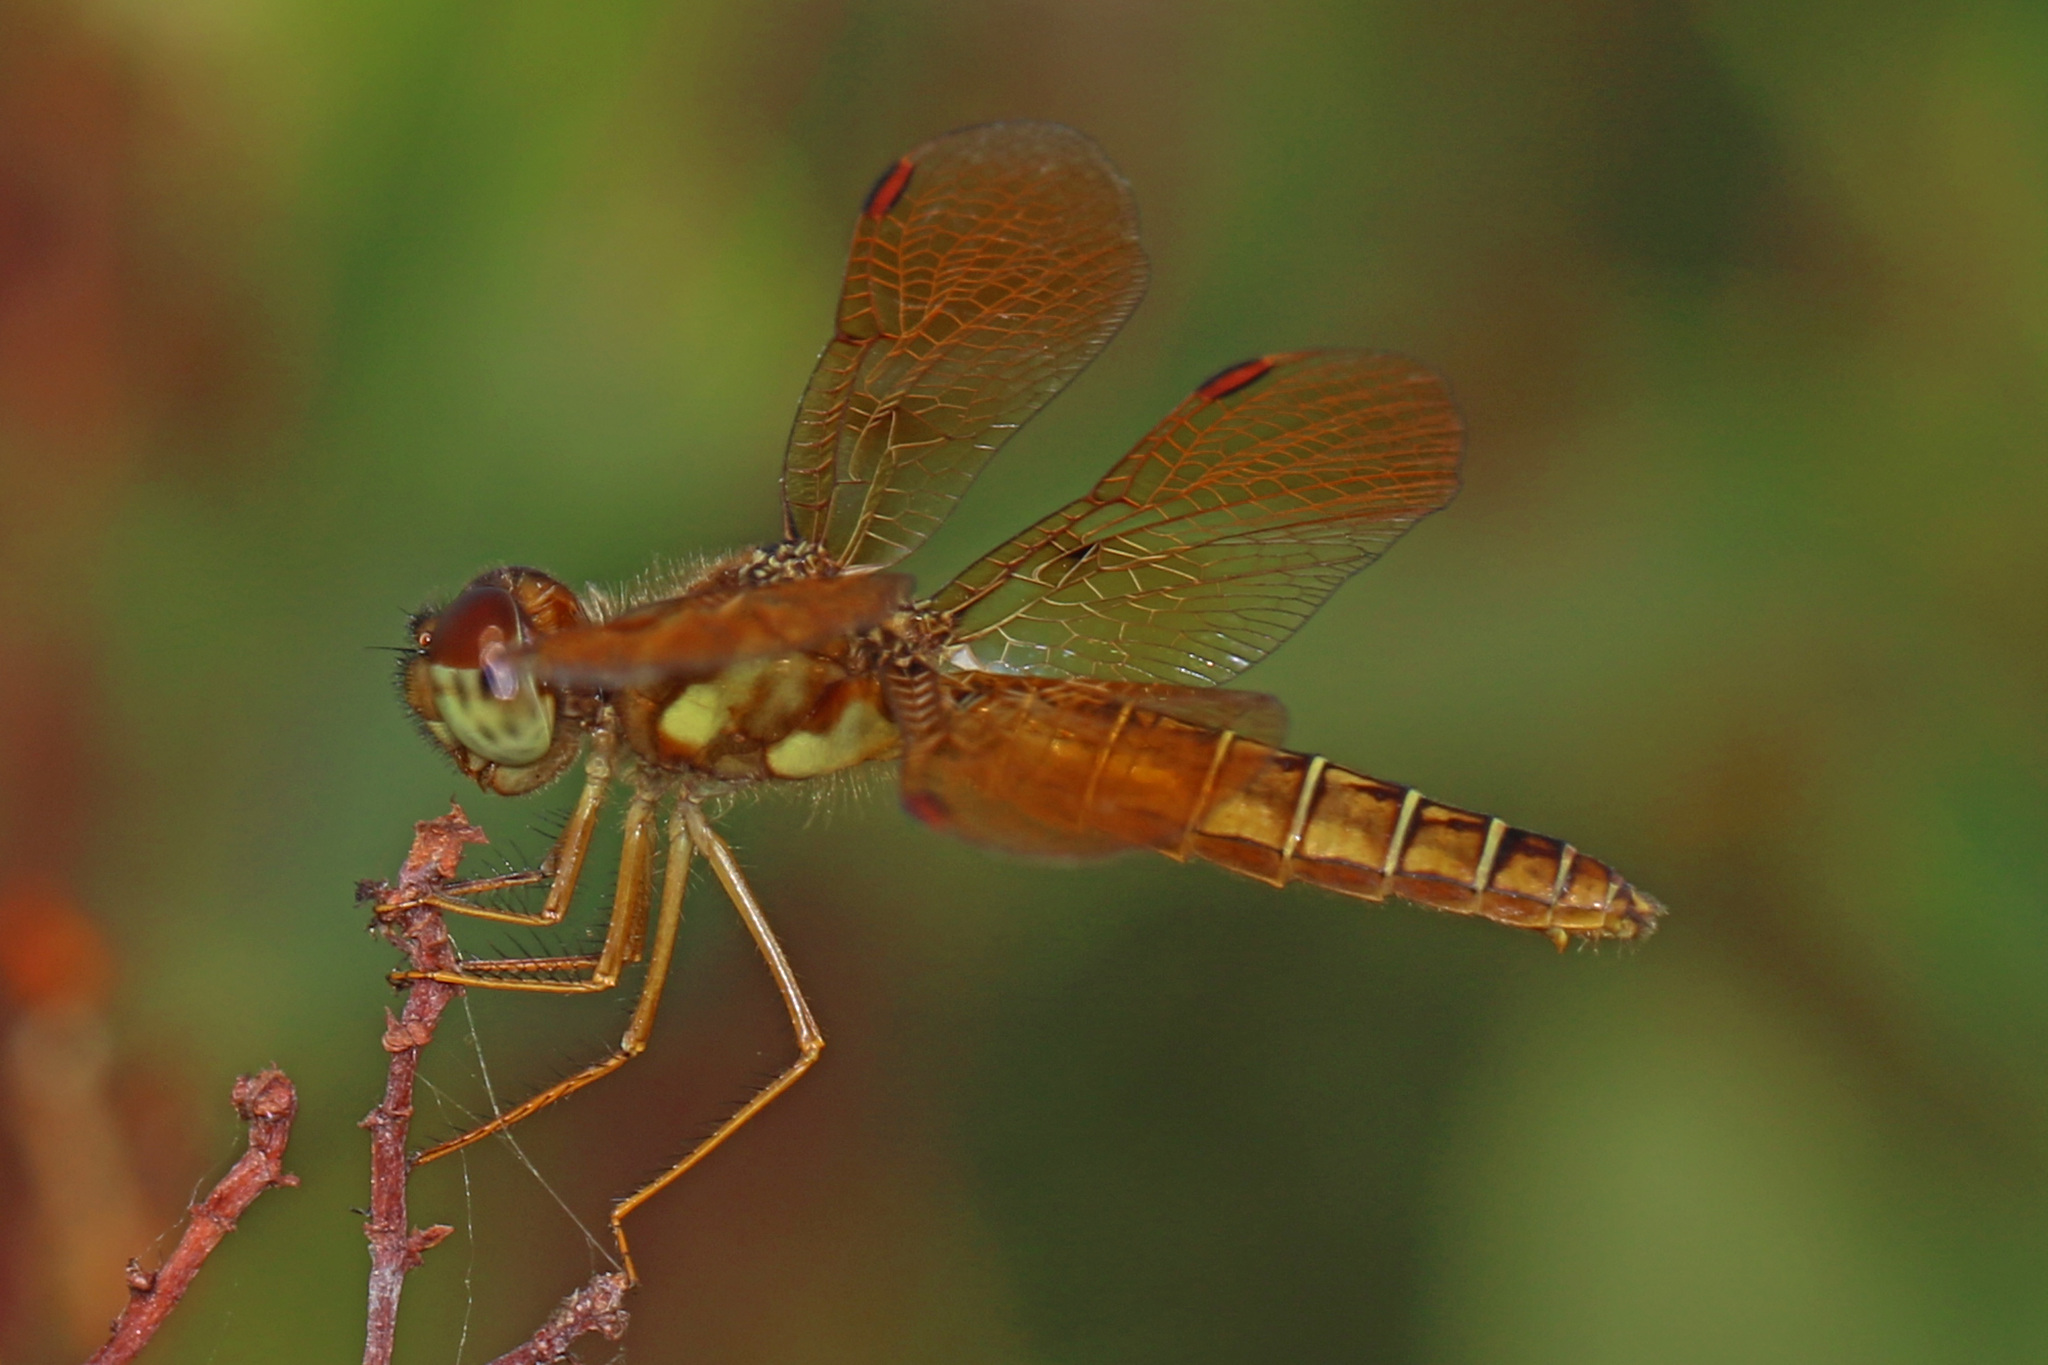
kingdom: Animalia
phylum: Arthropoda
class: Insecta
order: Odonata
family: Libellulidae
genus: Perithemis
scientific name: Perithemis tenera
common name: Eastern amberwing
